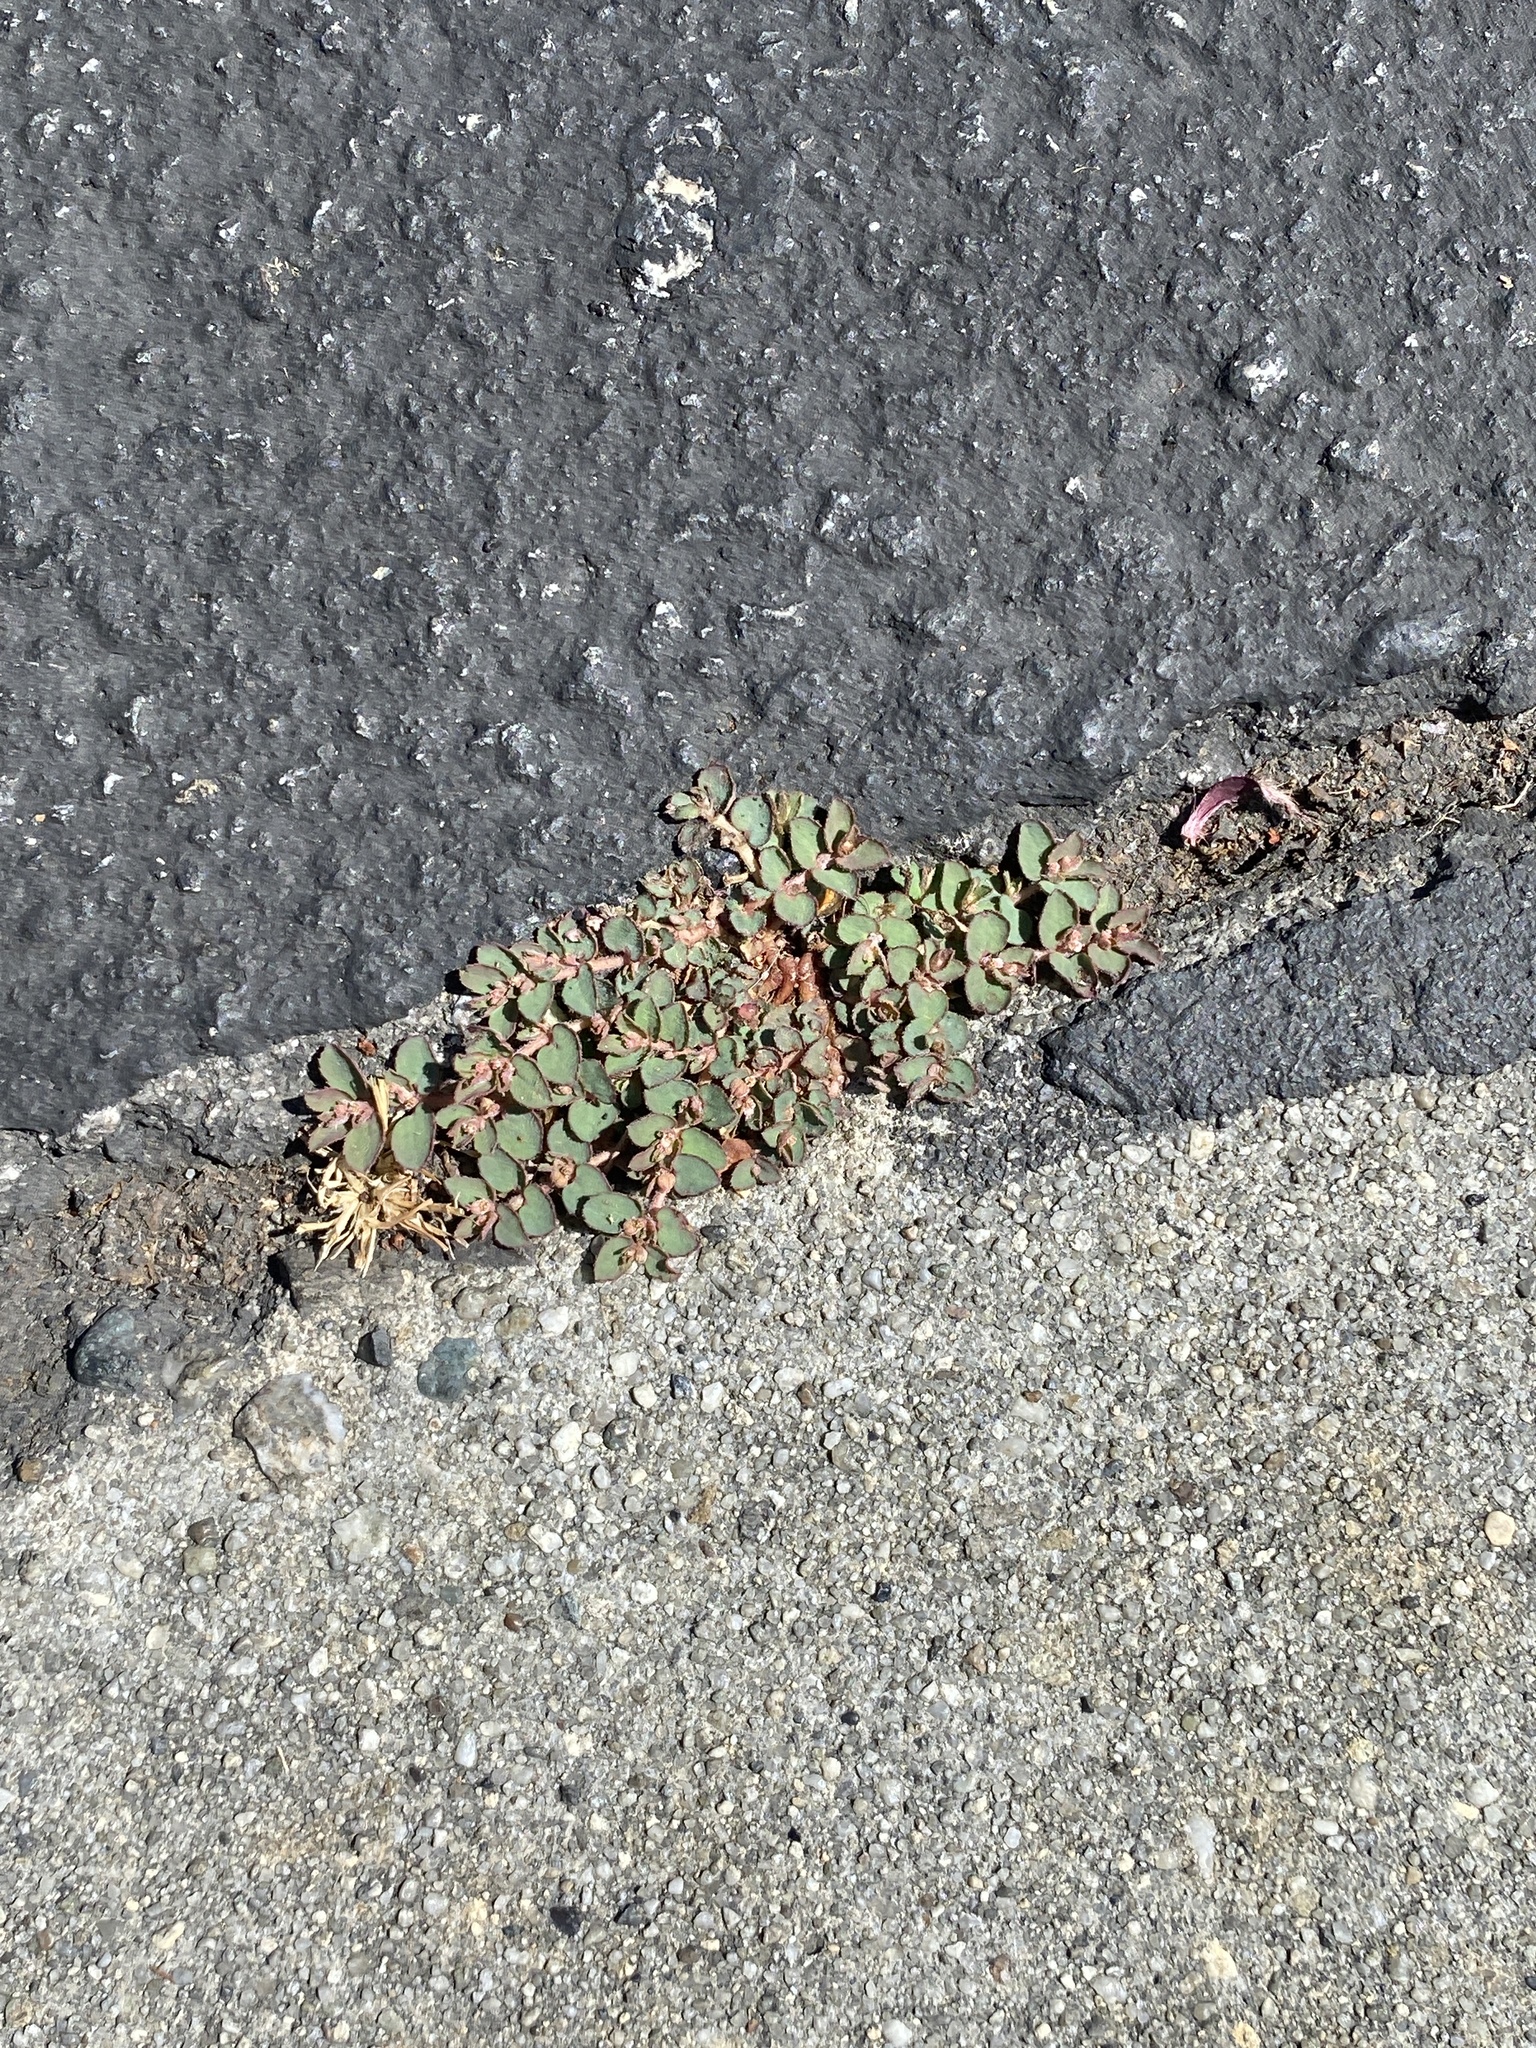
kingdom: Plantae
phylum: Tracheophyta
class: Magnoliopsida
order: Malpighiales
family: Euphorbiaceae
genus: Euphorbia
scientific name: Euphorbia maculata
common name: Spotted spurge
